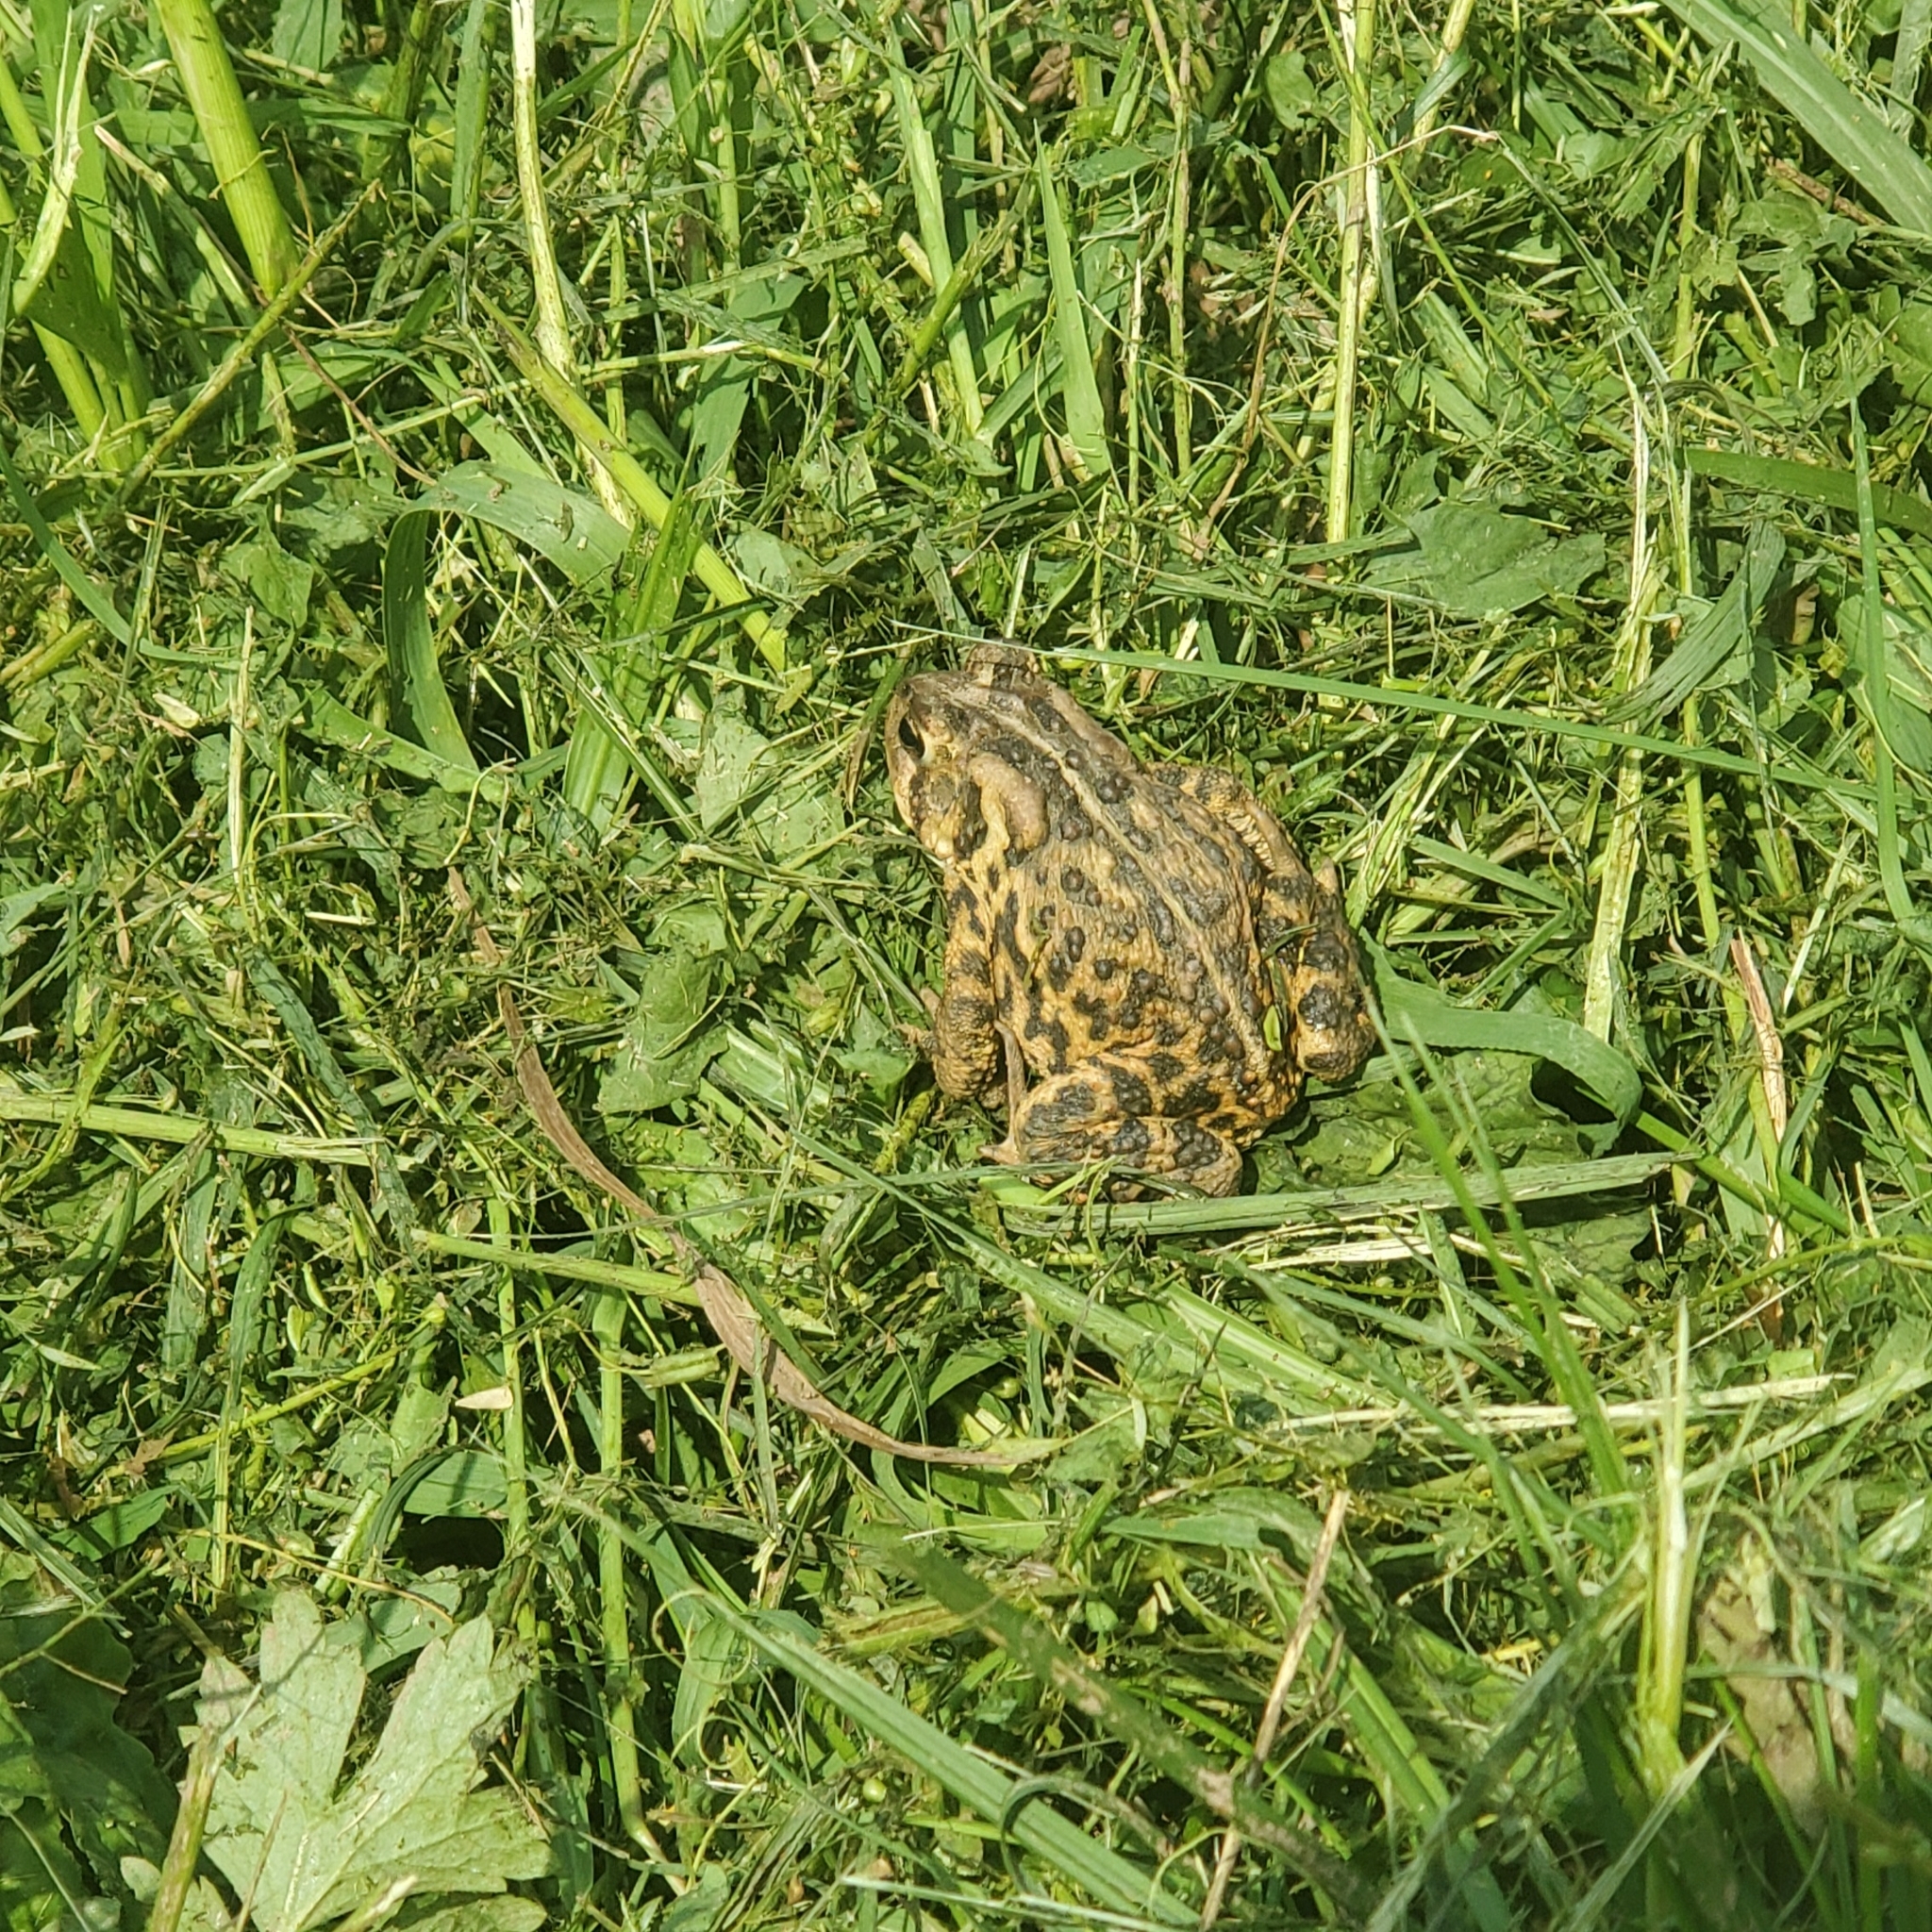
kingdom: Animalia
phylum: Chordata
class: Amphibia
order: Anura
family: Bufonidae
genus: Anaxyrus
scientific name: Anaxyrus americanus
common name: American toad
